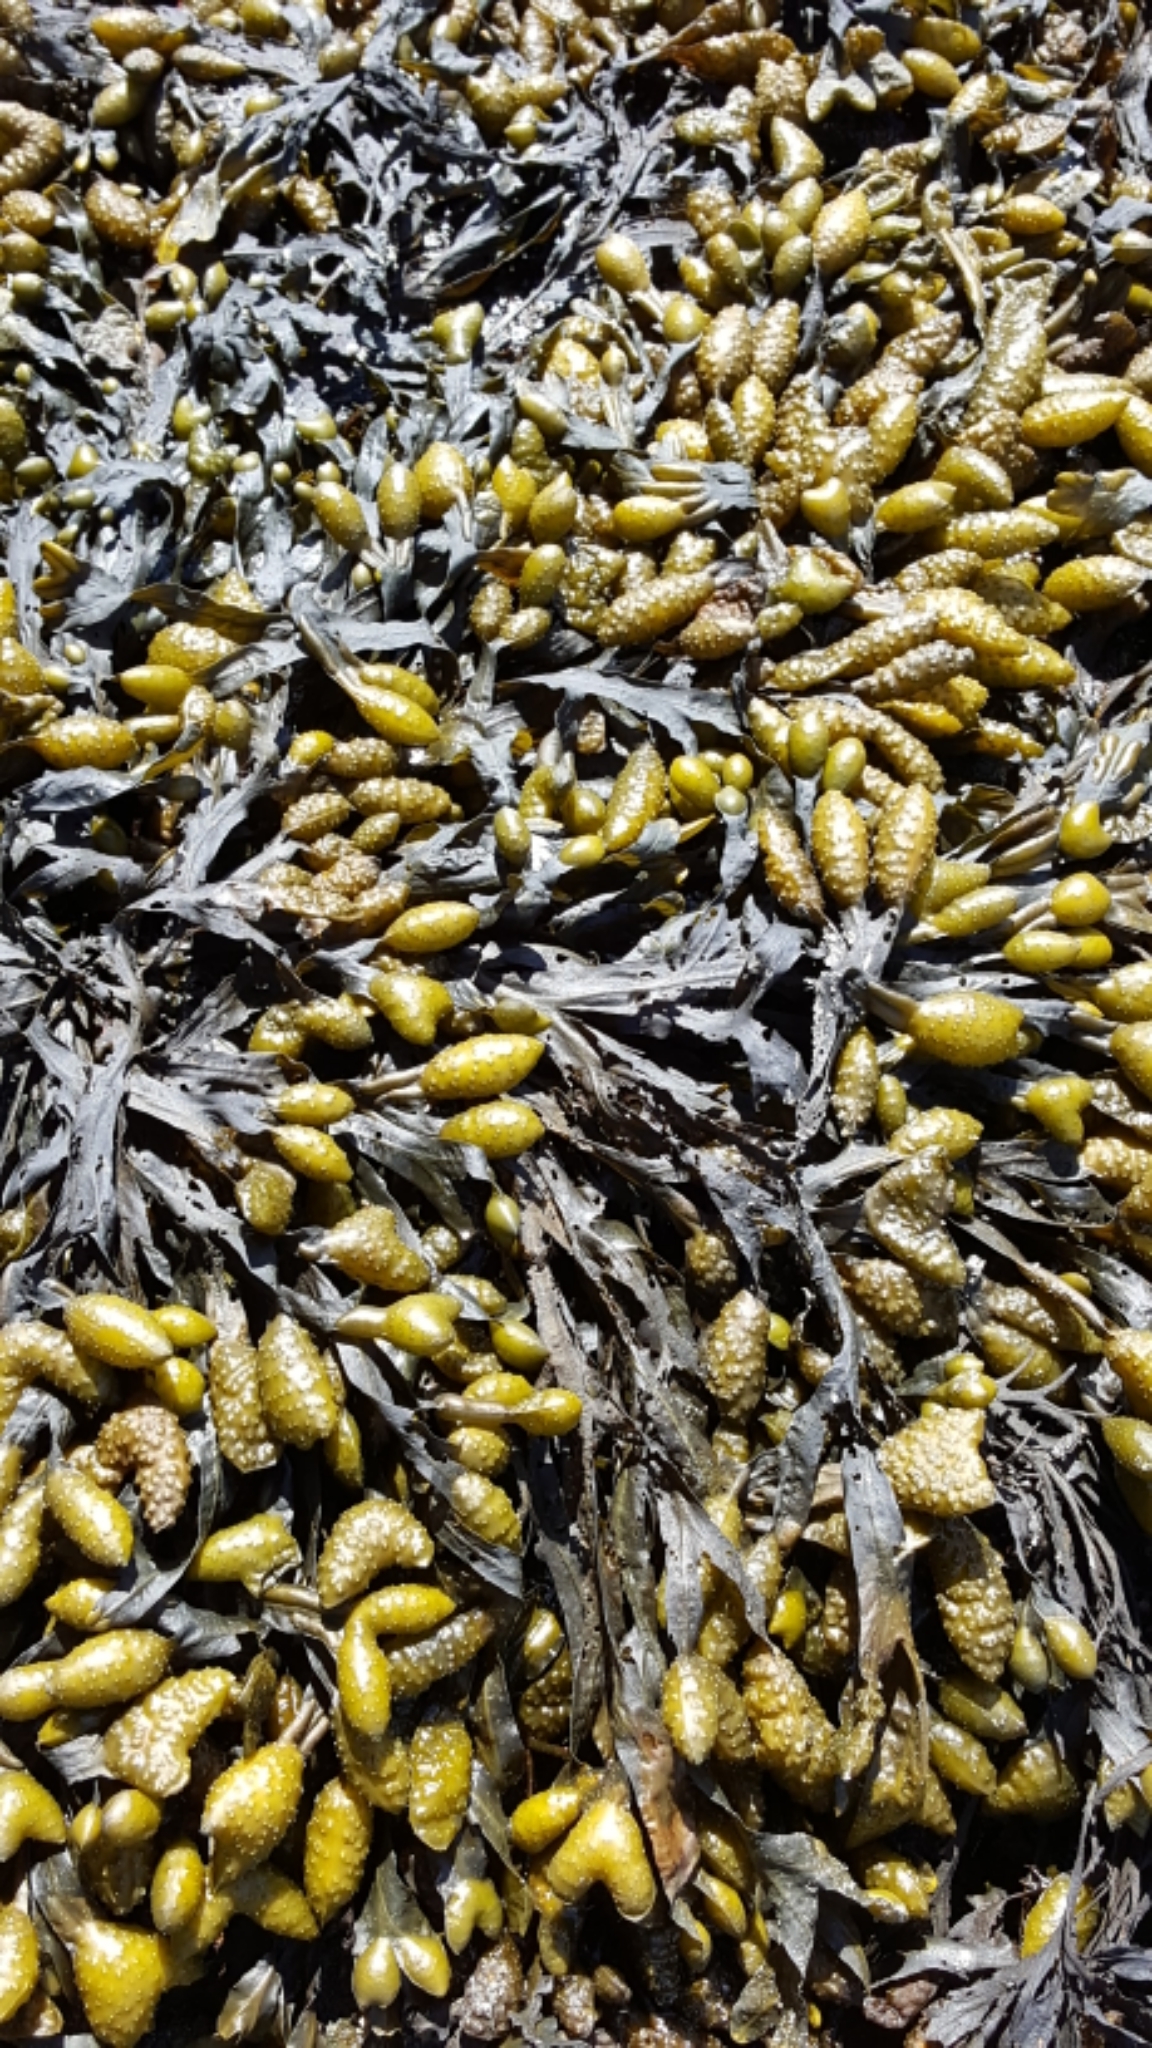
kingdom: Chromista
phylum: Ochrophyta
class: Phaeophyceae
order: Fucales
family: Fucaceae
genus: Fucus
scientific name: Fucus distichus
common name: Rockweed
